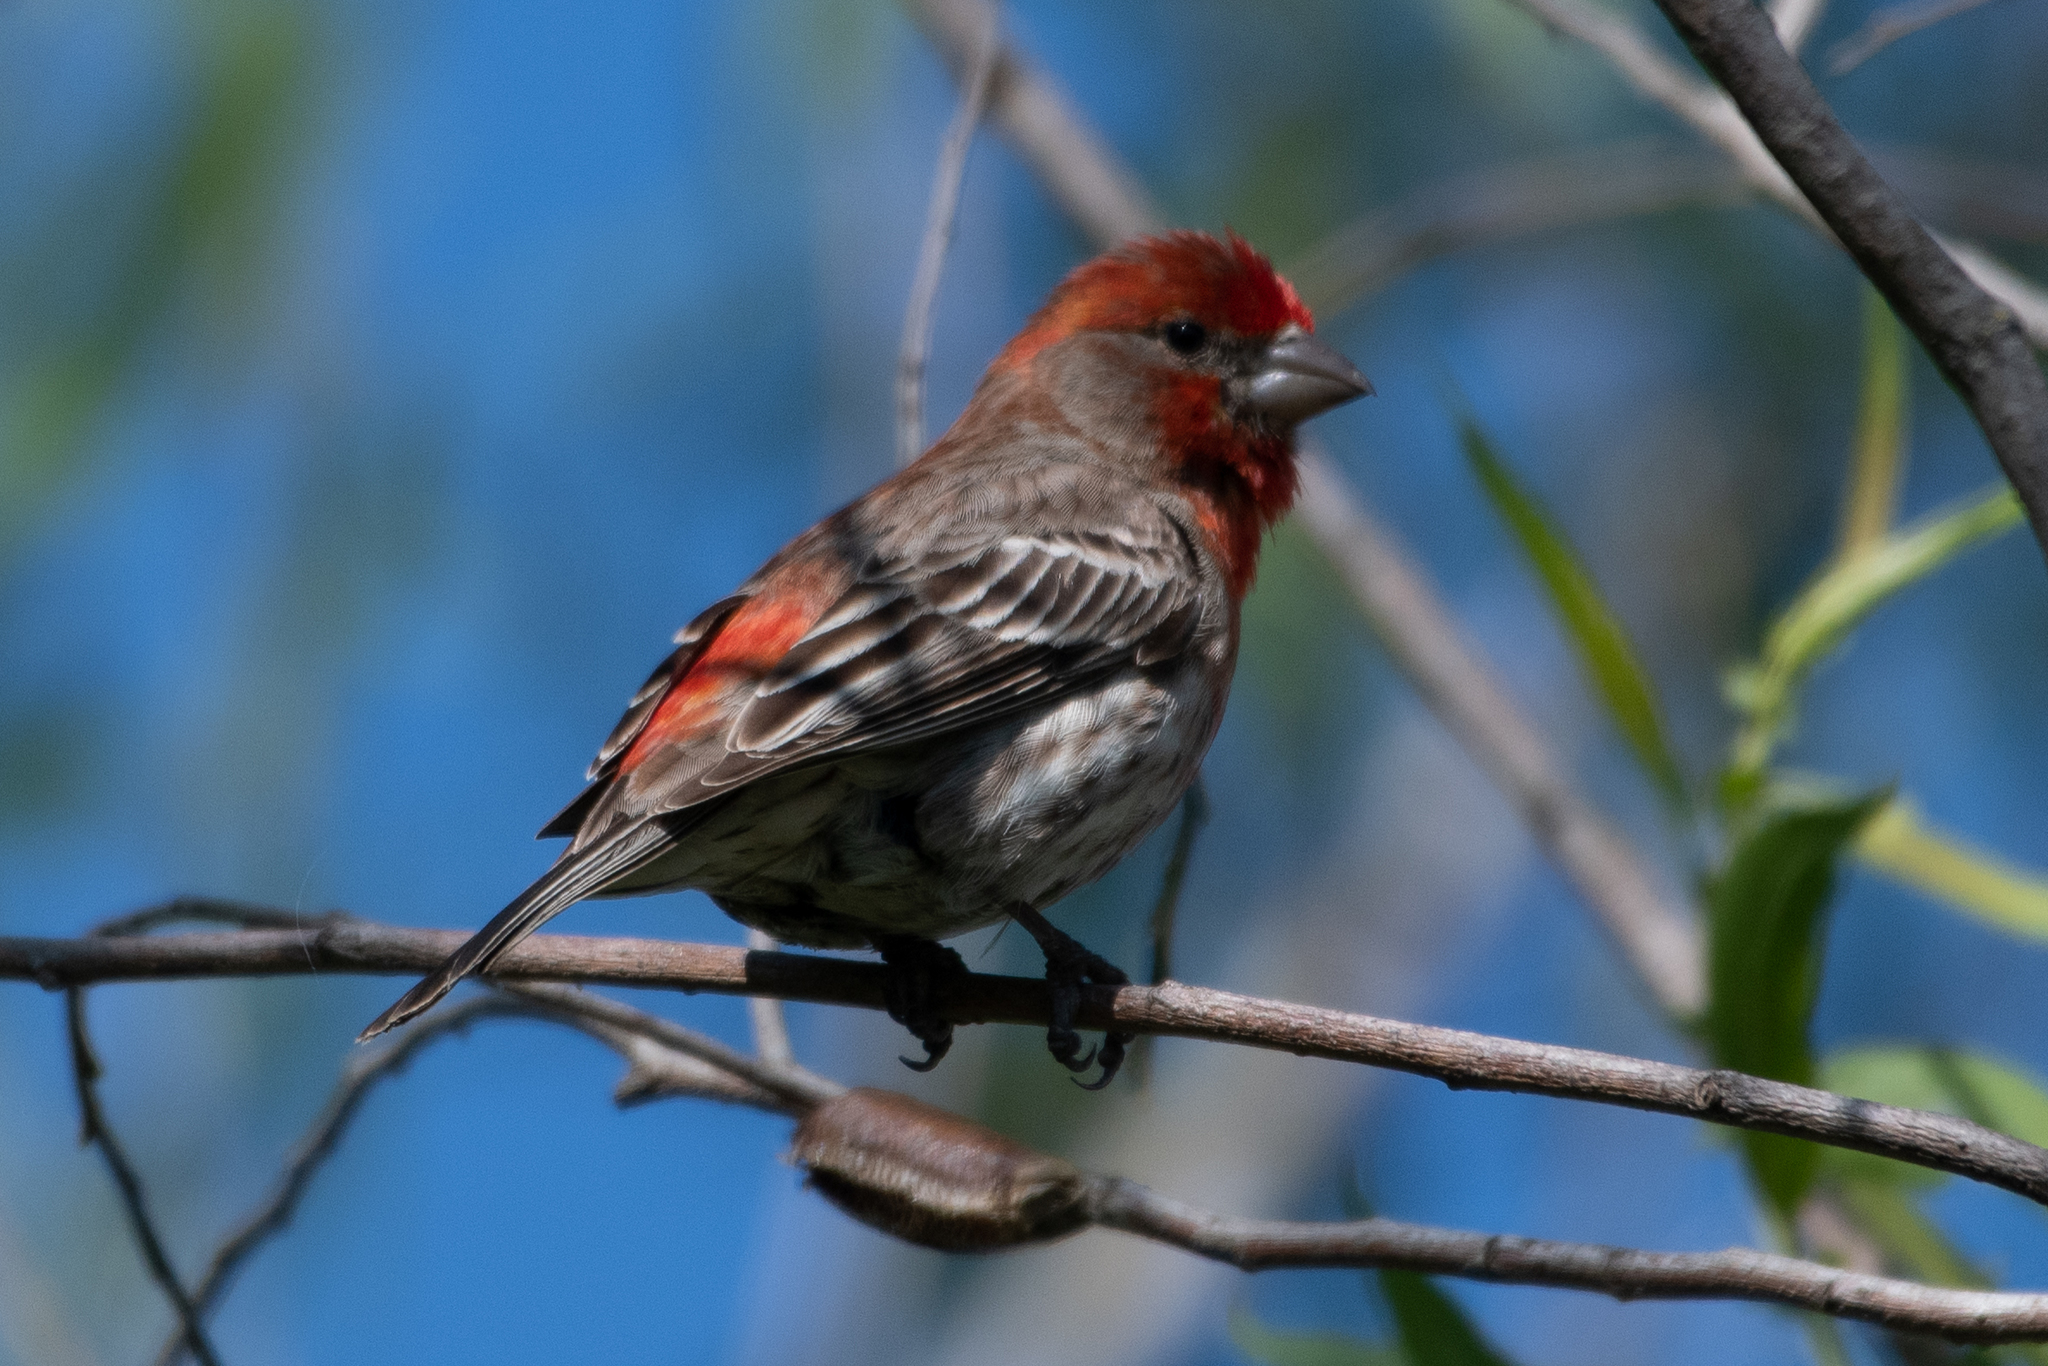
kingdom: Animalia
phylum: Chordata
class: Aves
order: Passeriformes
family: Fringillidae
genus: Haemorhous
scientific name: Haemorhous mexicanus
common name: House finch
